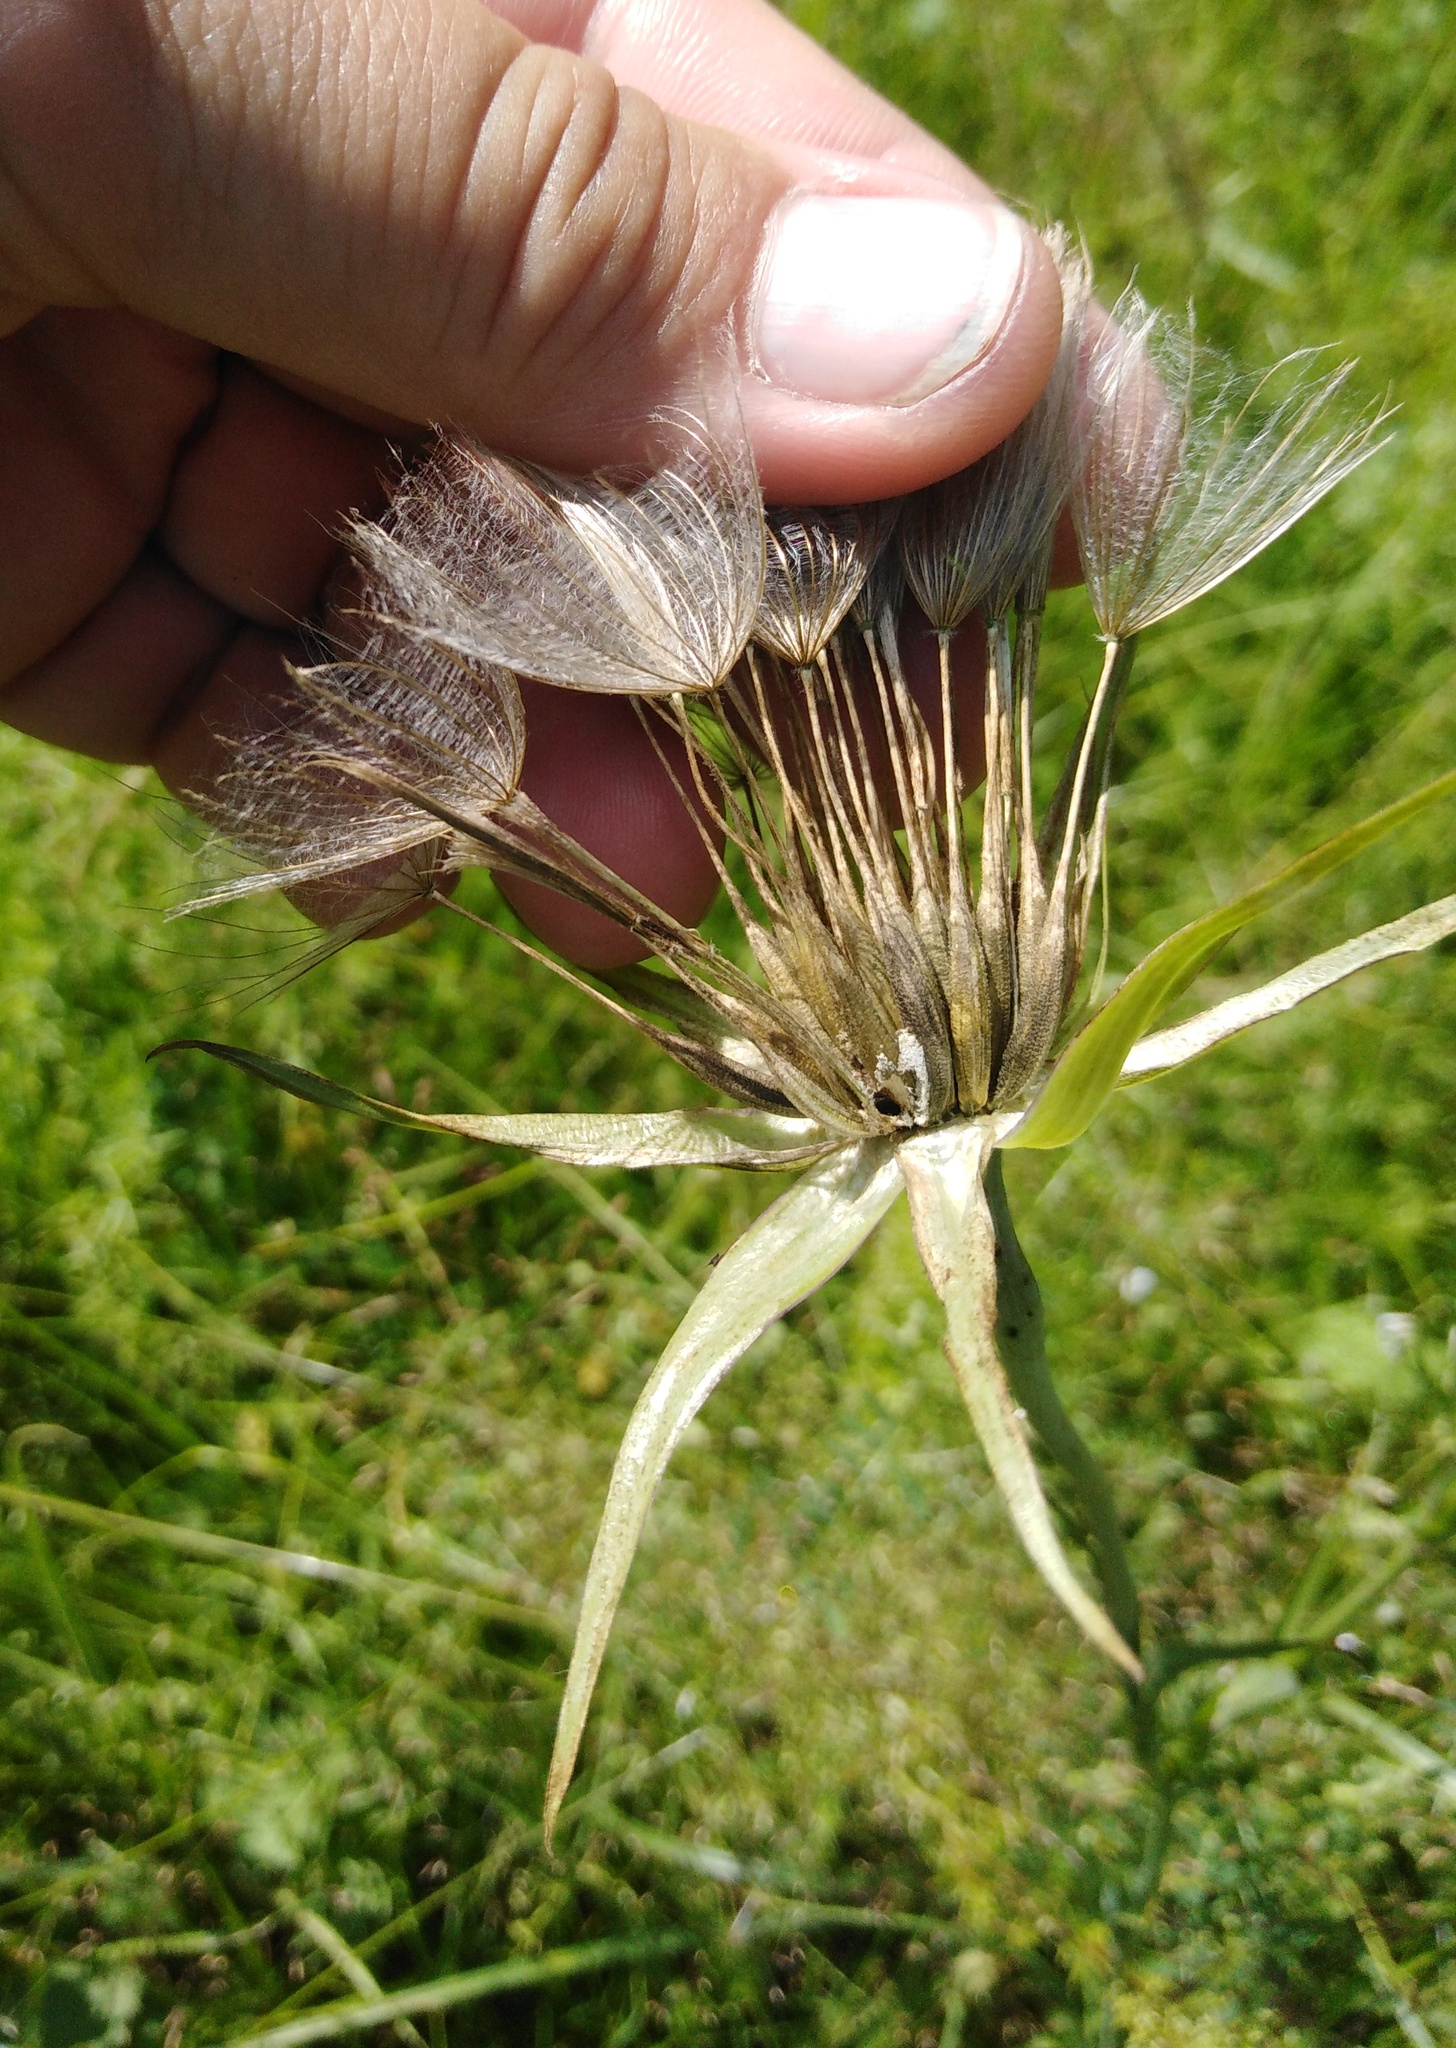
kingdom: Plantae
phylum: Tracheophyta
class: Magnoliopsida
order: Asterales
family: Asteraceae
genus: Tragopogon
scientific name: Tragopogon orientalis
